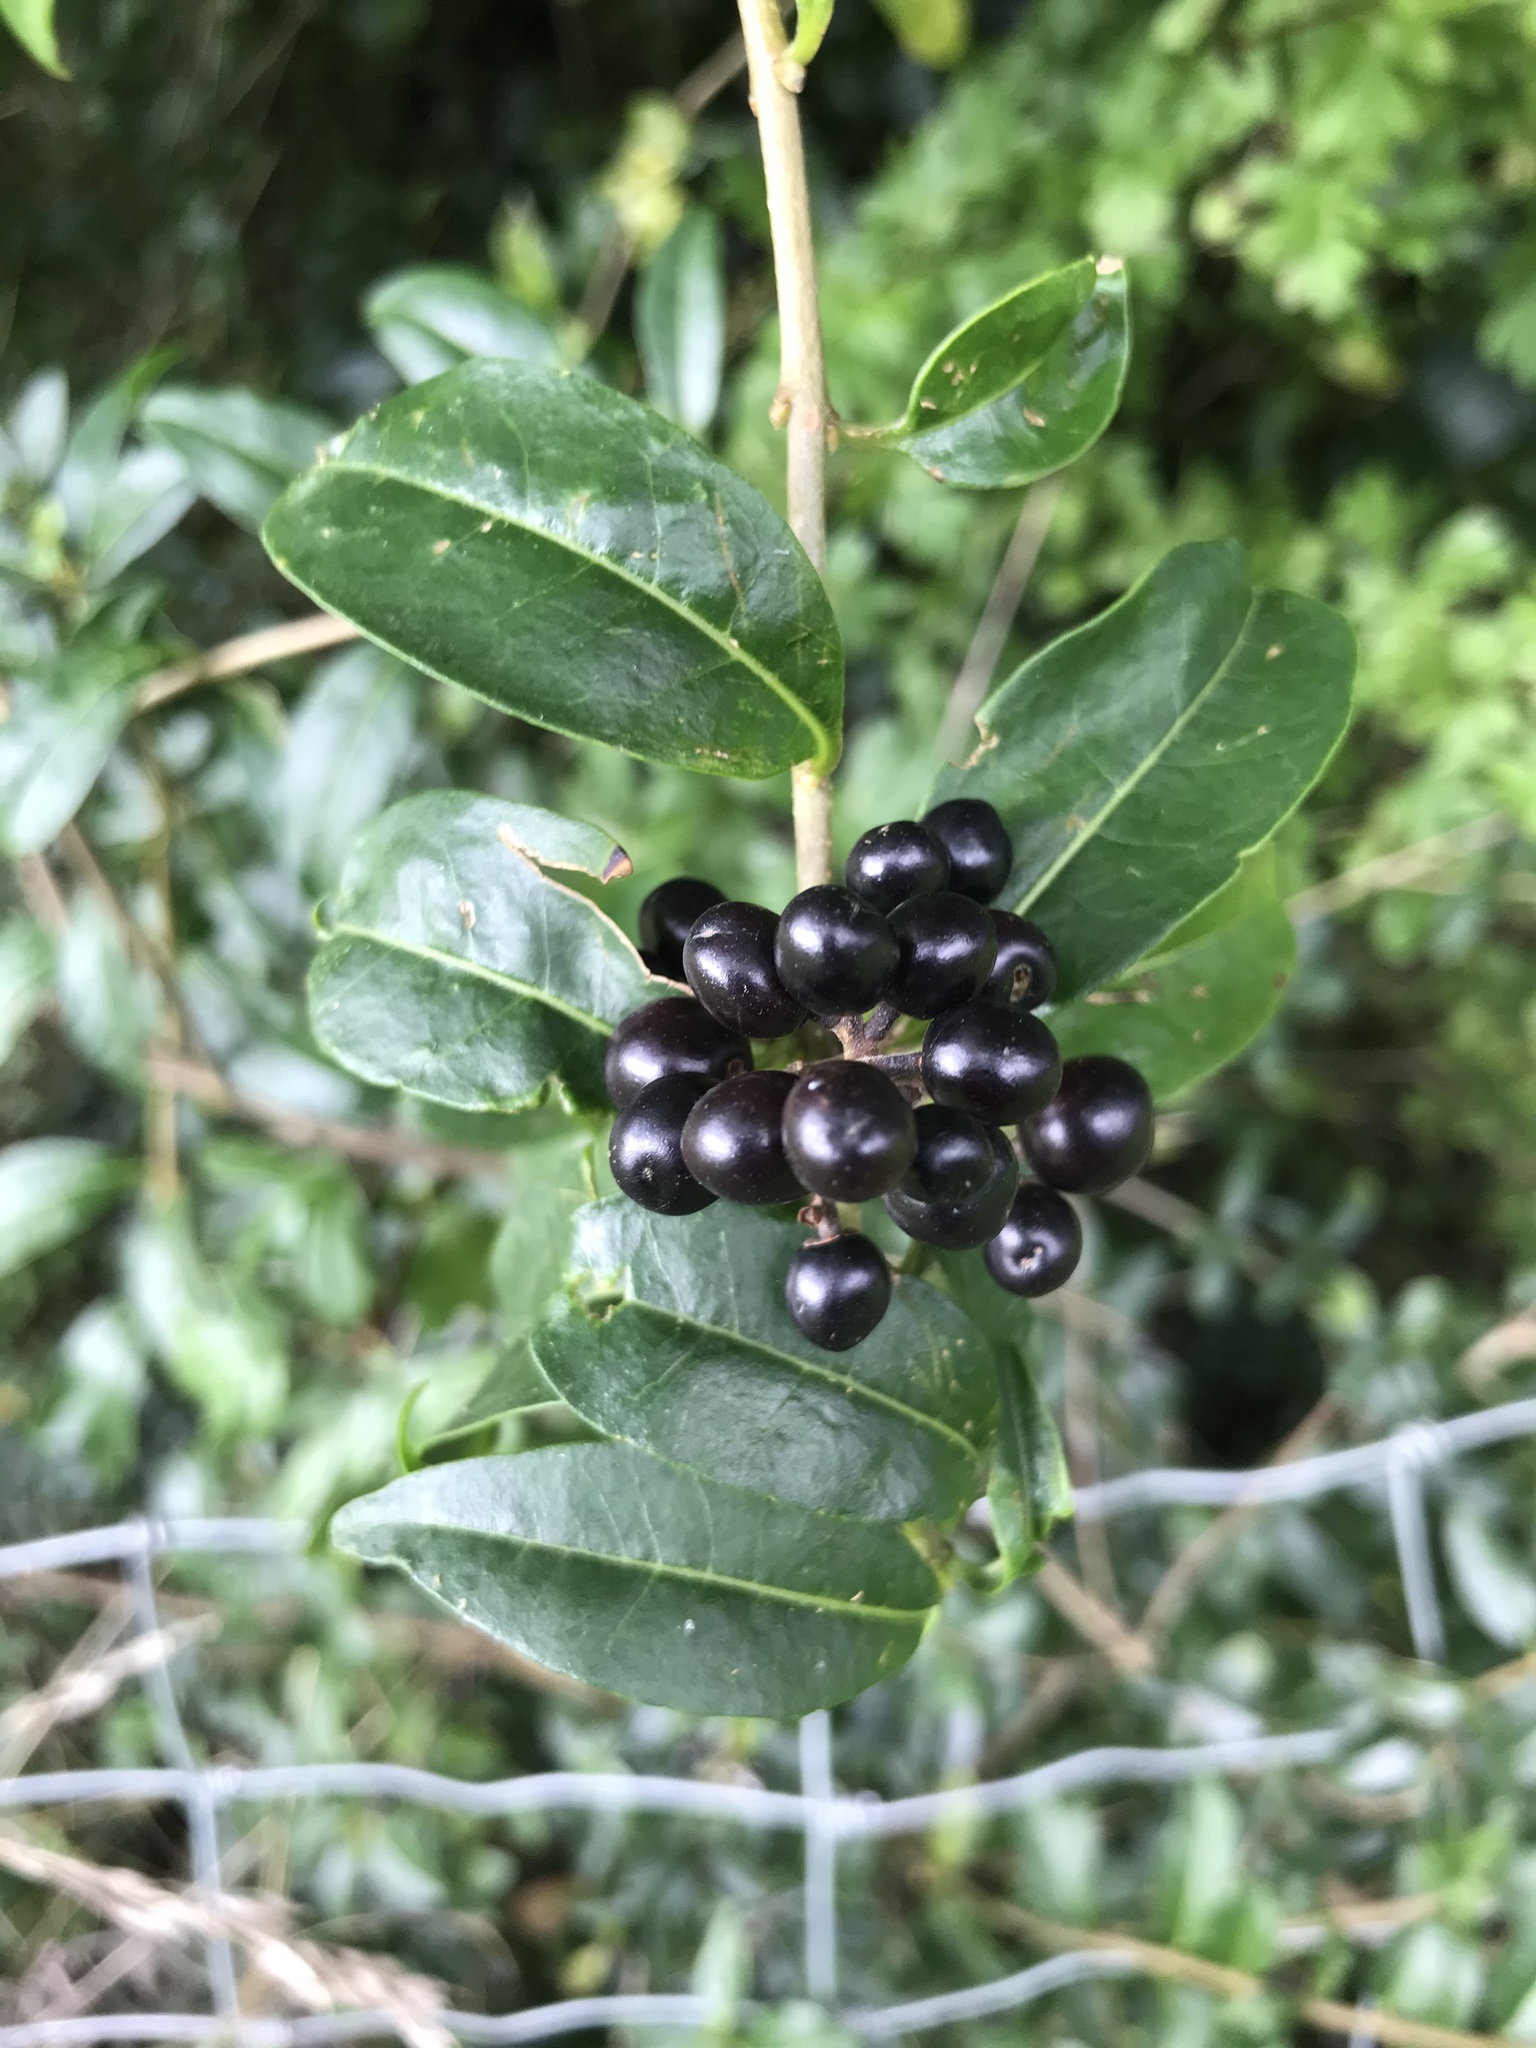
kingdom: Plantae
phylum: Tracheophyta
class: Magnoliopsida
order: Lamiales
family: Oleaceae
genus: Ligustrum
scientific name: Ligustrum vulgare
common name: Wild privet
